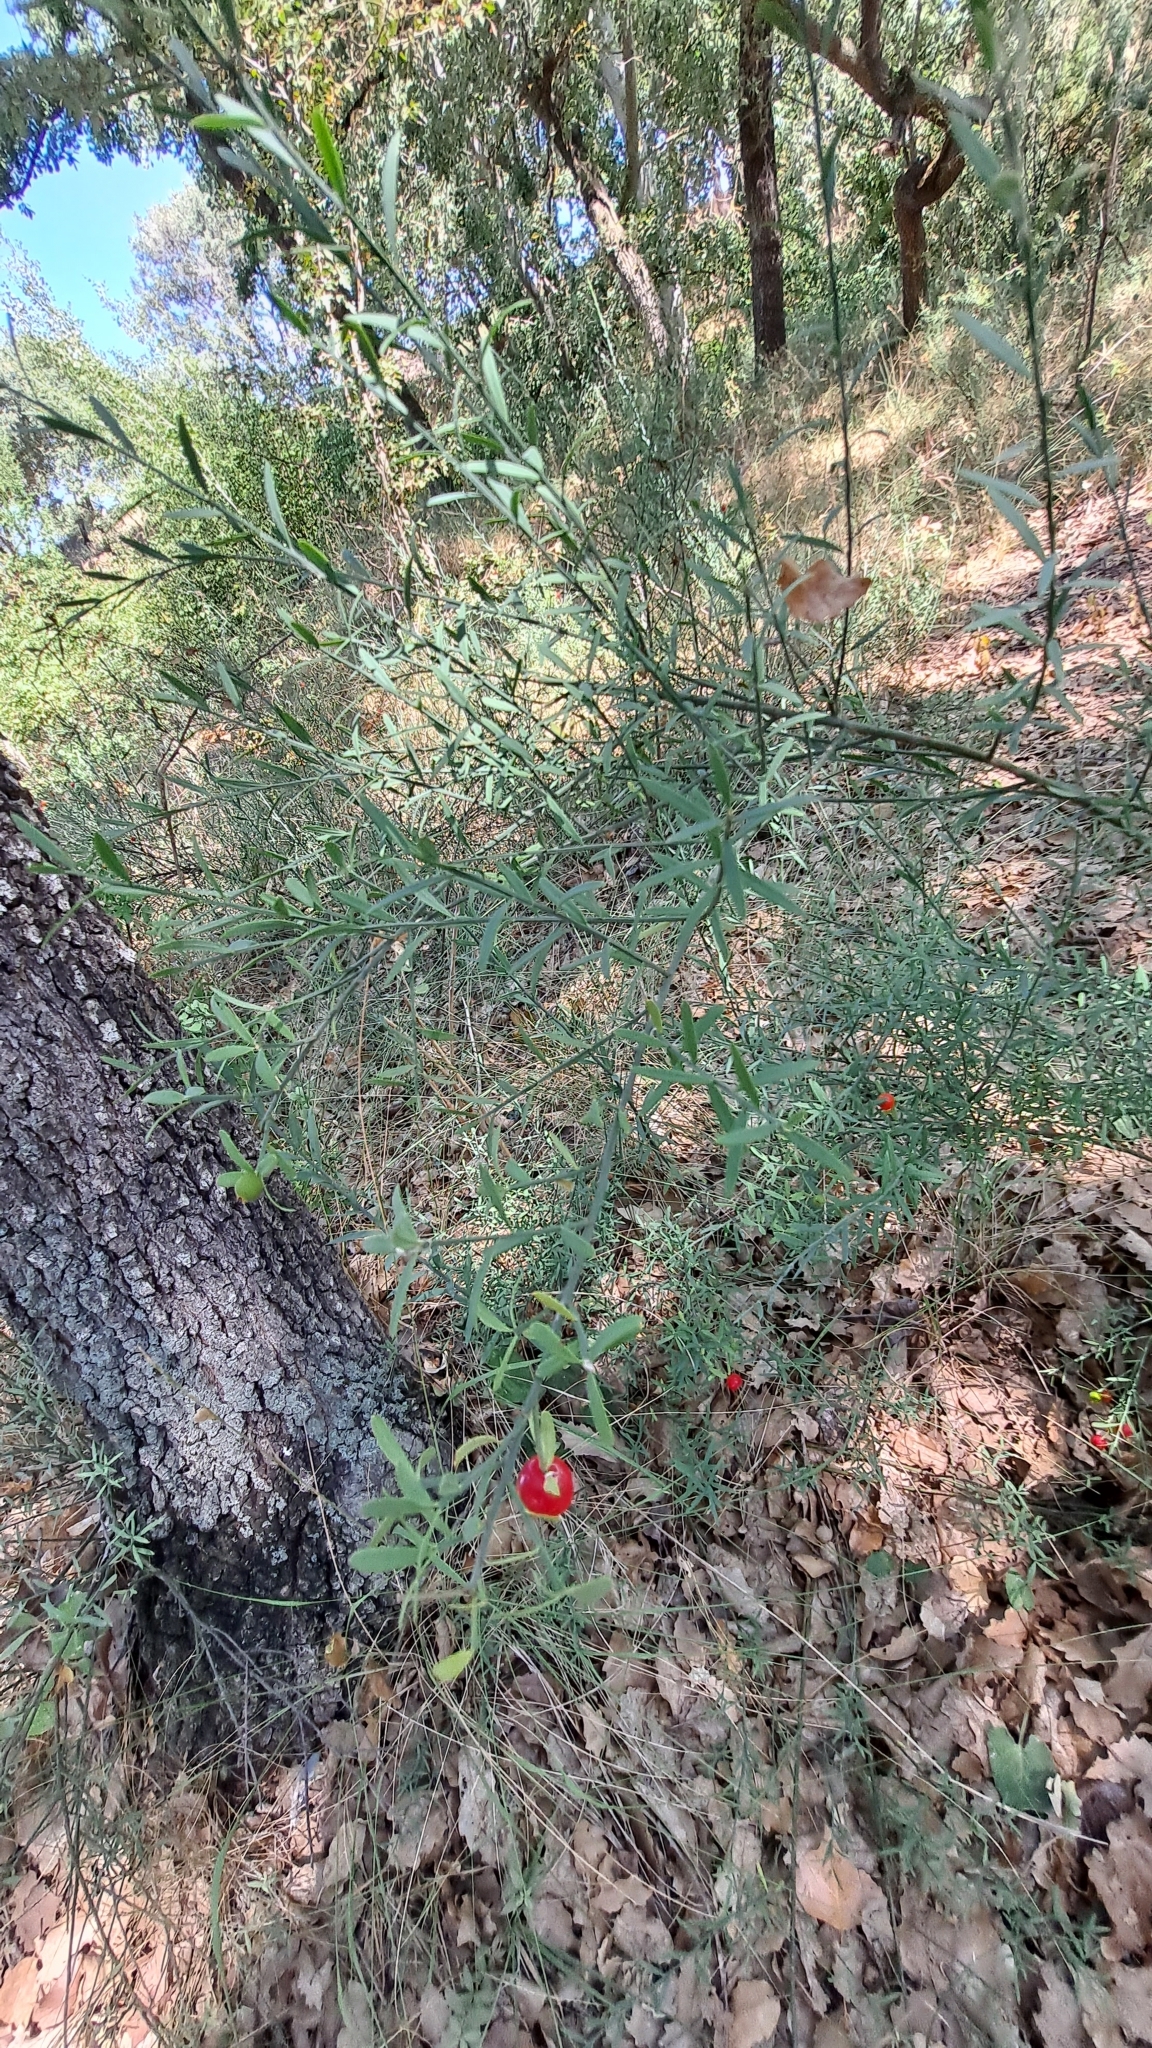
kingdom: Plantae
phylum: Tracheophyta
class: Magnoliopsida
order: Santalales
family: Santalaceae
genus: Osyris
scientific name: Osyris alba
